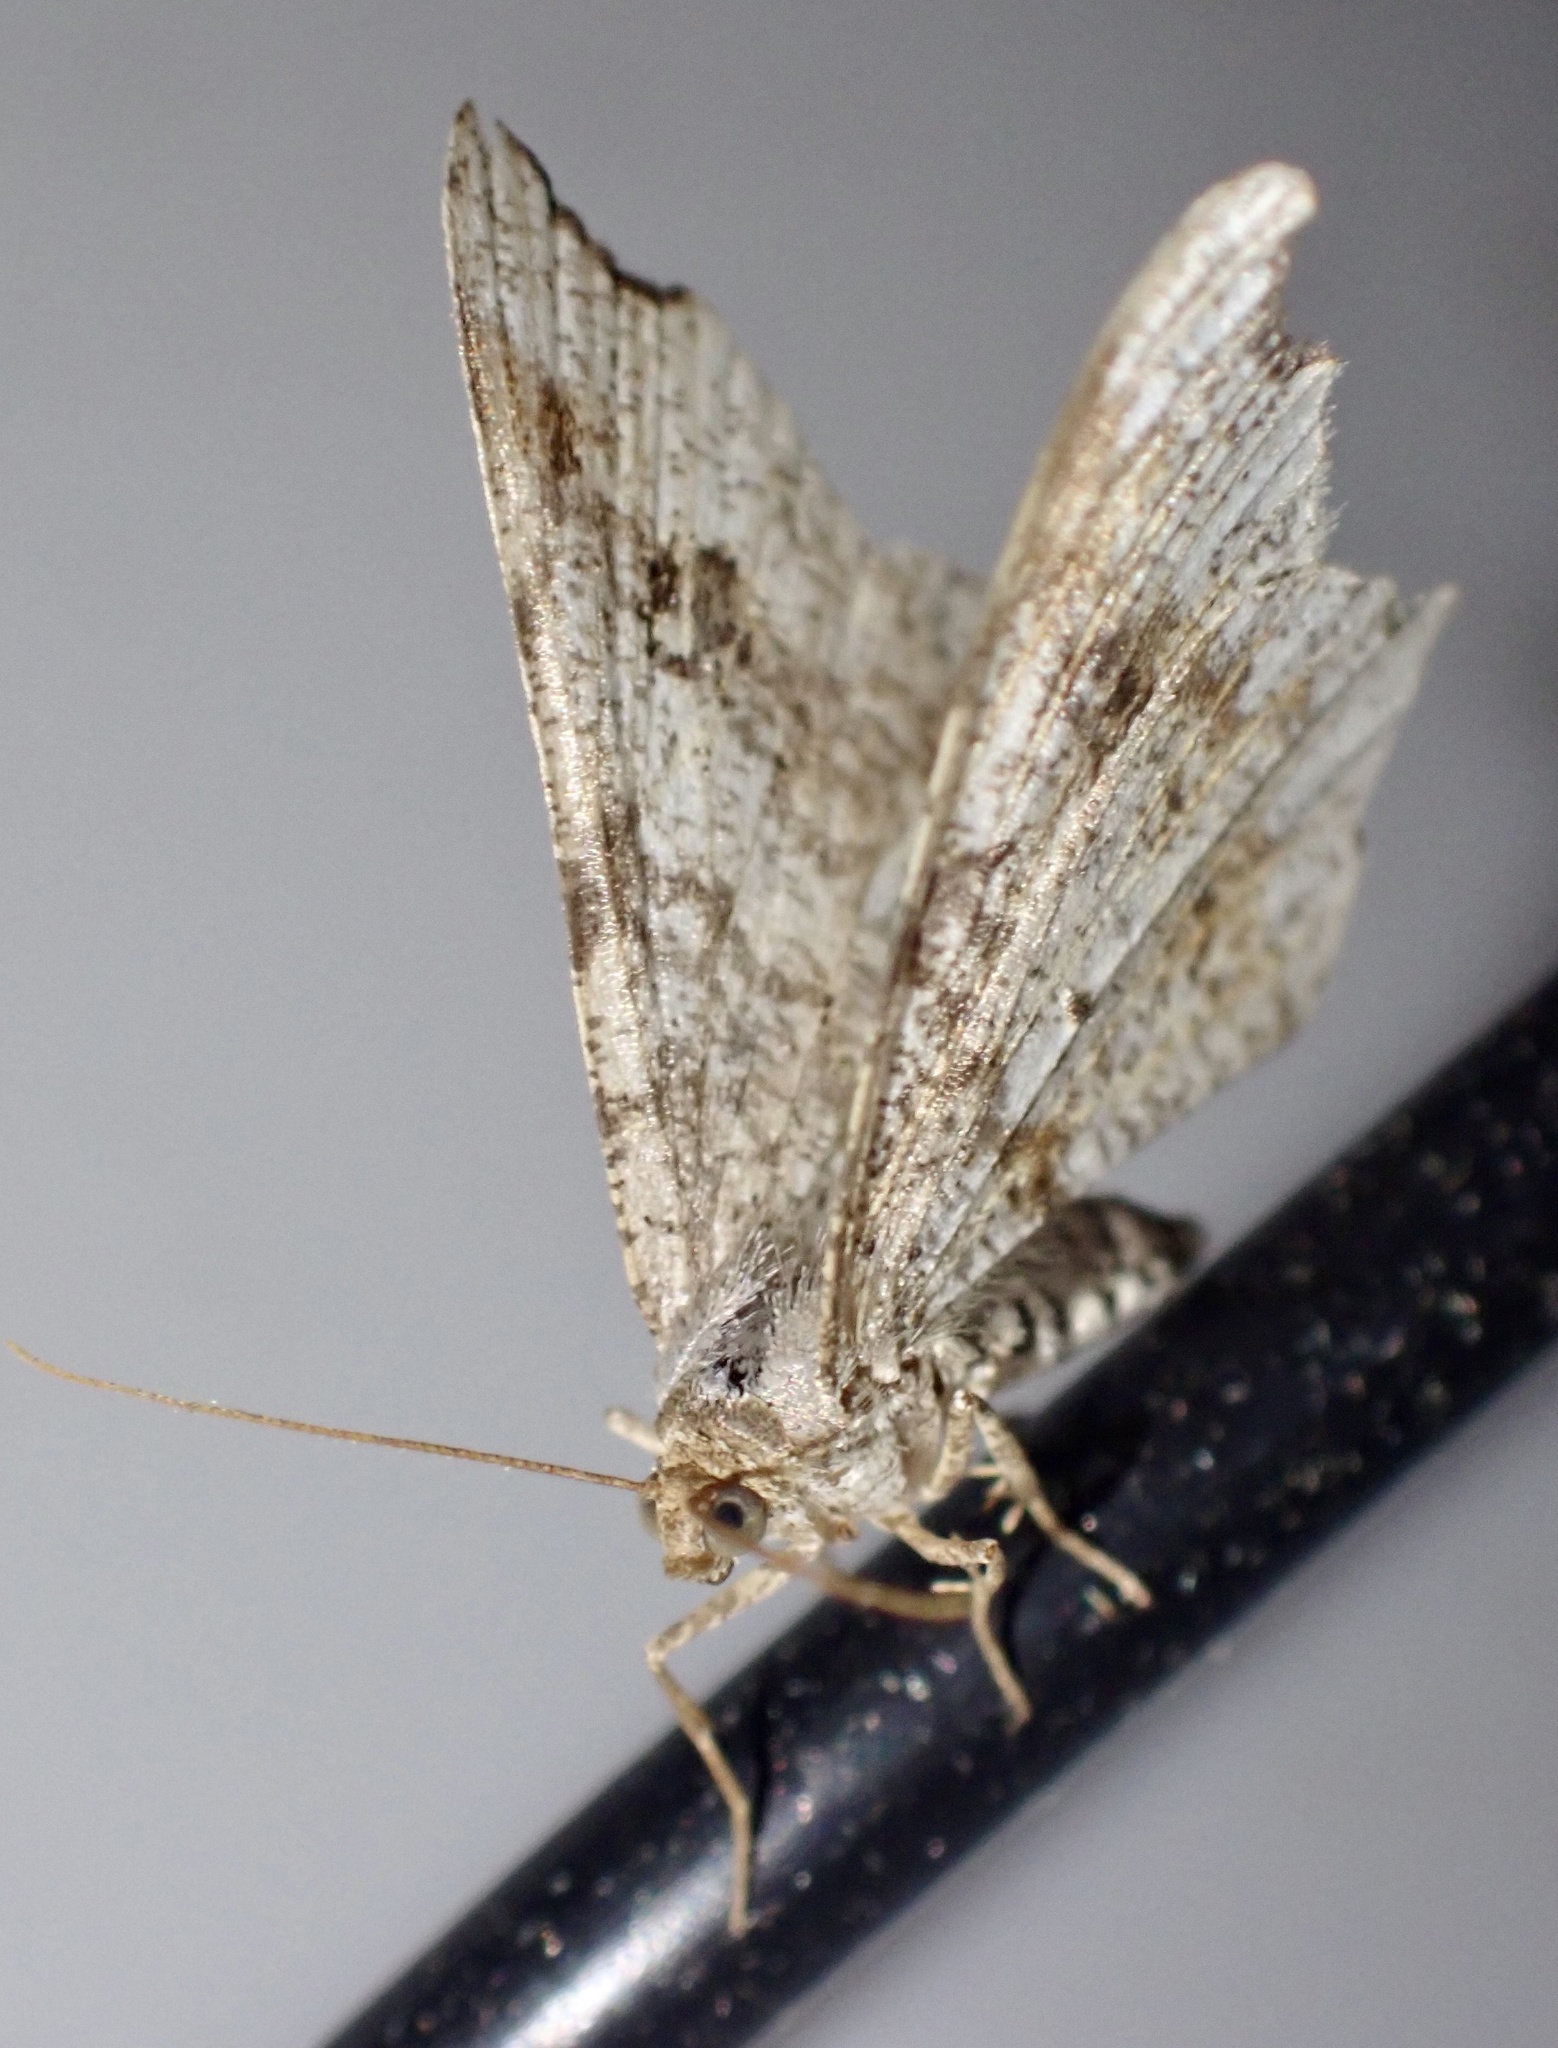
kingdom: Animalia
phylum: Arthropoda
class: Insecta
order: Lepidoptera
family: Geometridae
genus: Macaria
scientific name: Macaria alternata
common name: Sharp-angled peacock
